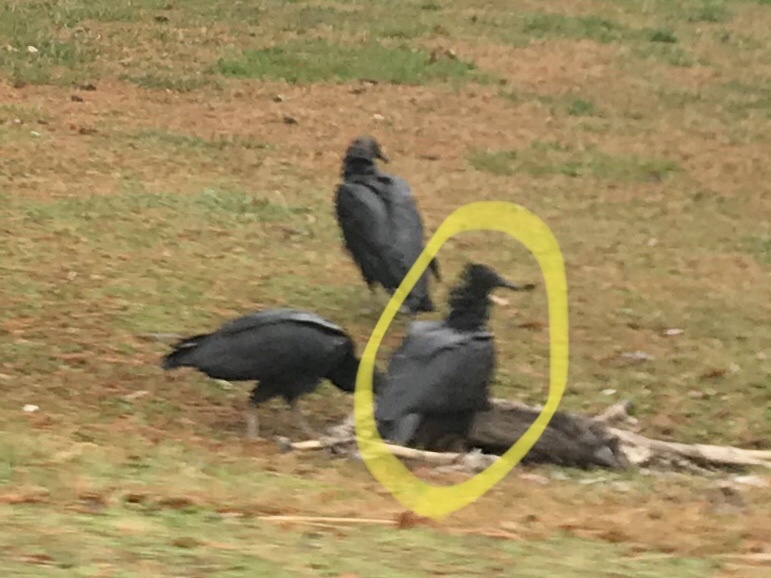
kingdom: Animalia
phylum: Chordata
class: Aves
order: Accipitriformes
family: Cathartidae
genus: Coragyps
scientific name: Coragyps atratus
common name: Black vulture
